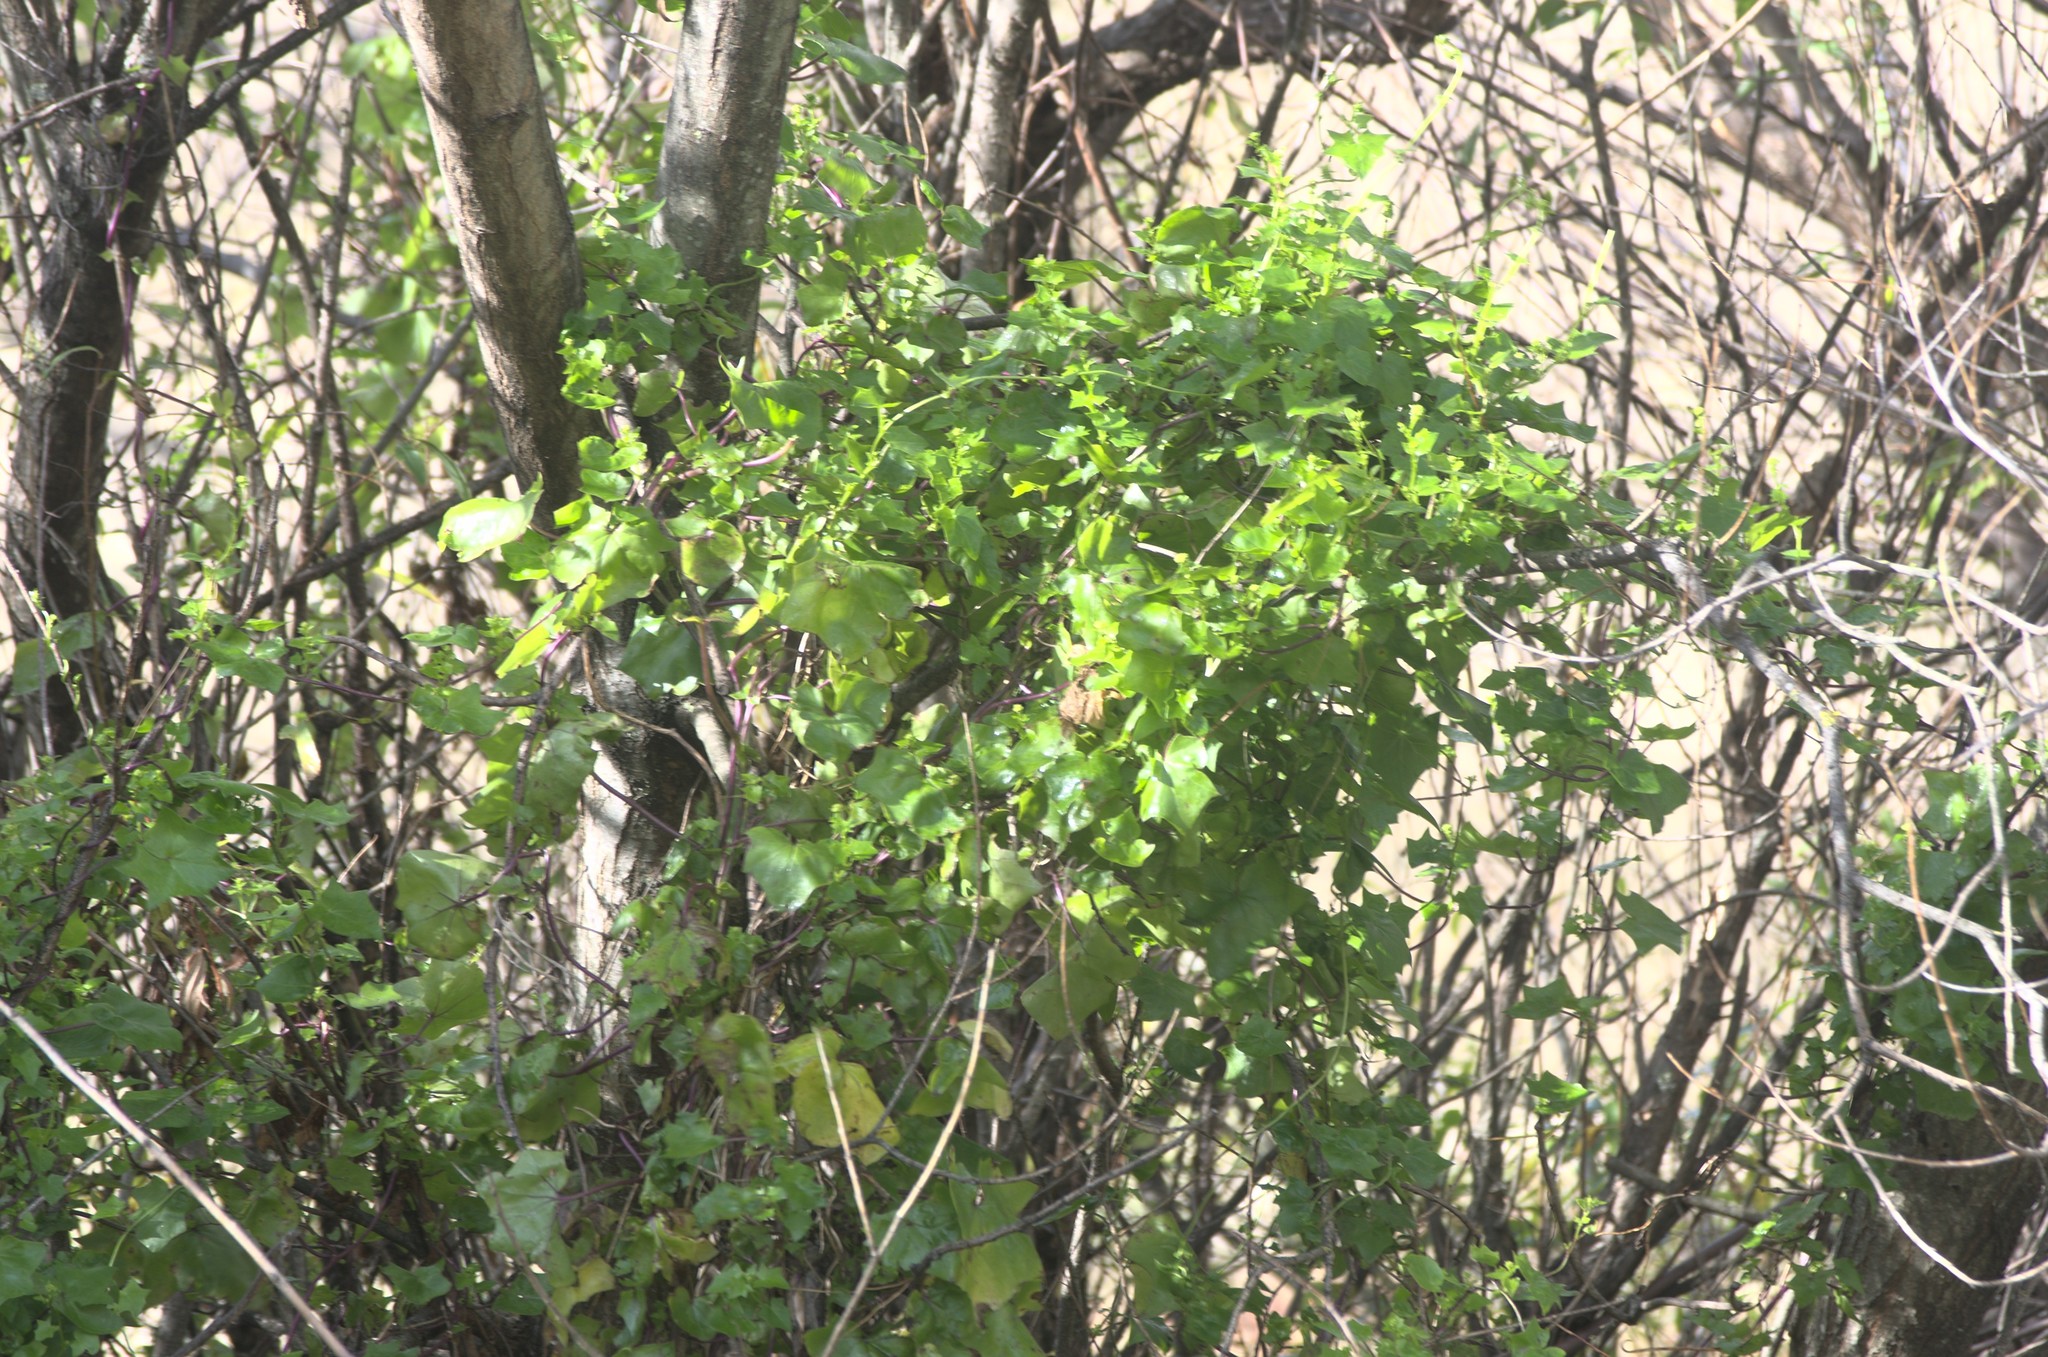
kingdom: Plantae
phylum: Tracheophyta
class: Magnoliopsida
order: Asterales
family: Asteraceae
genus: Delairea
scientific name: Delairea odorata
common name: Cape-ivy
